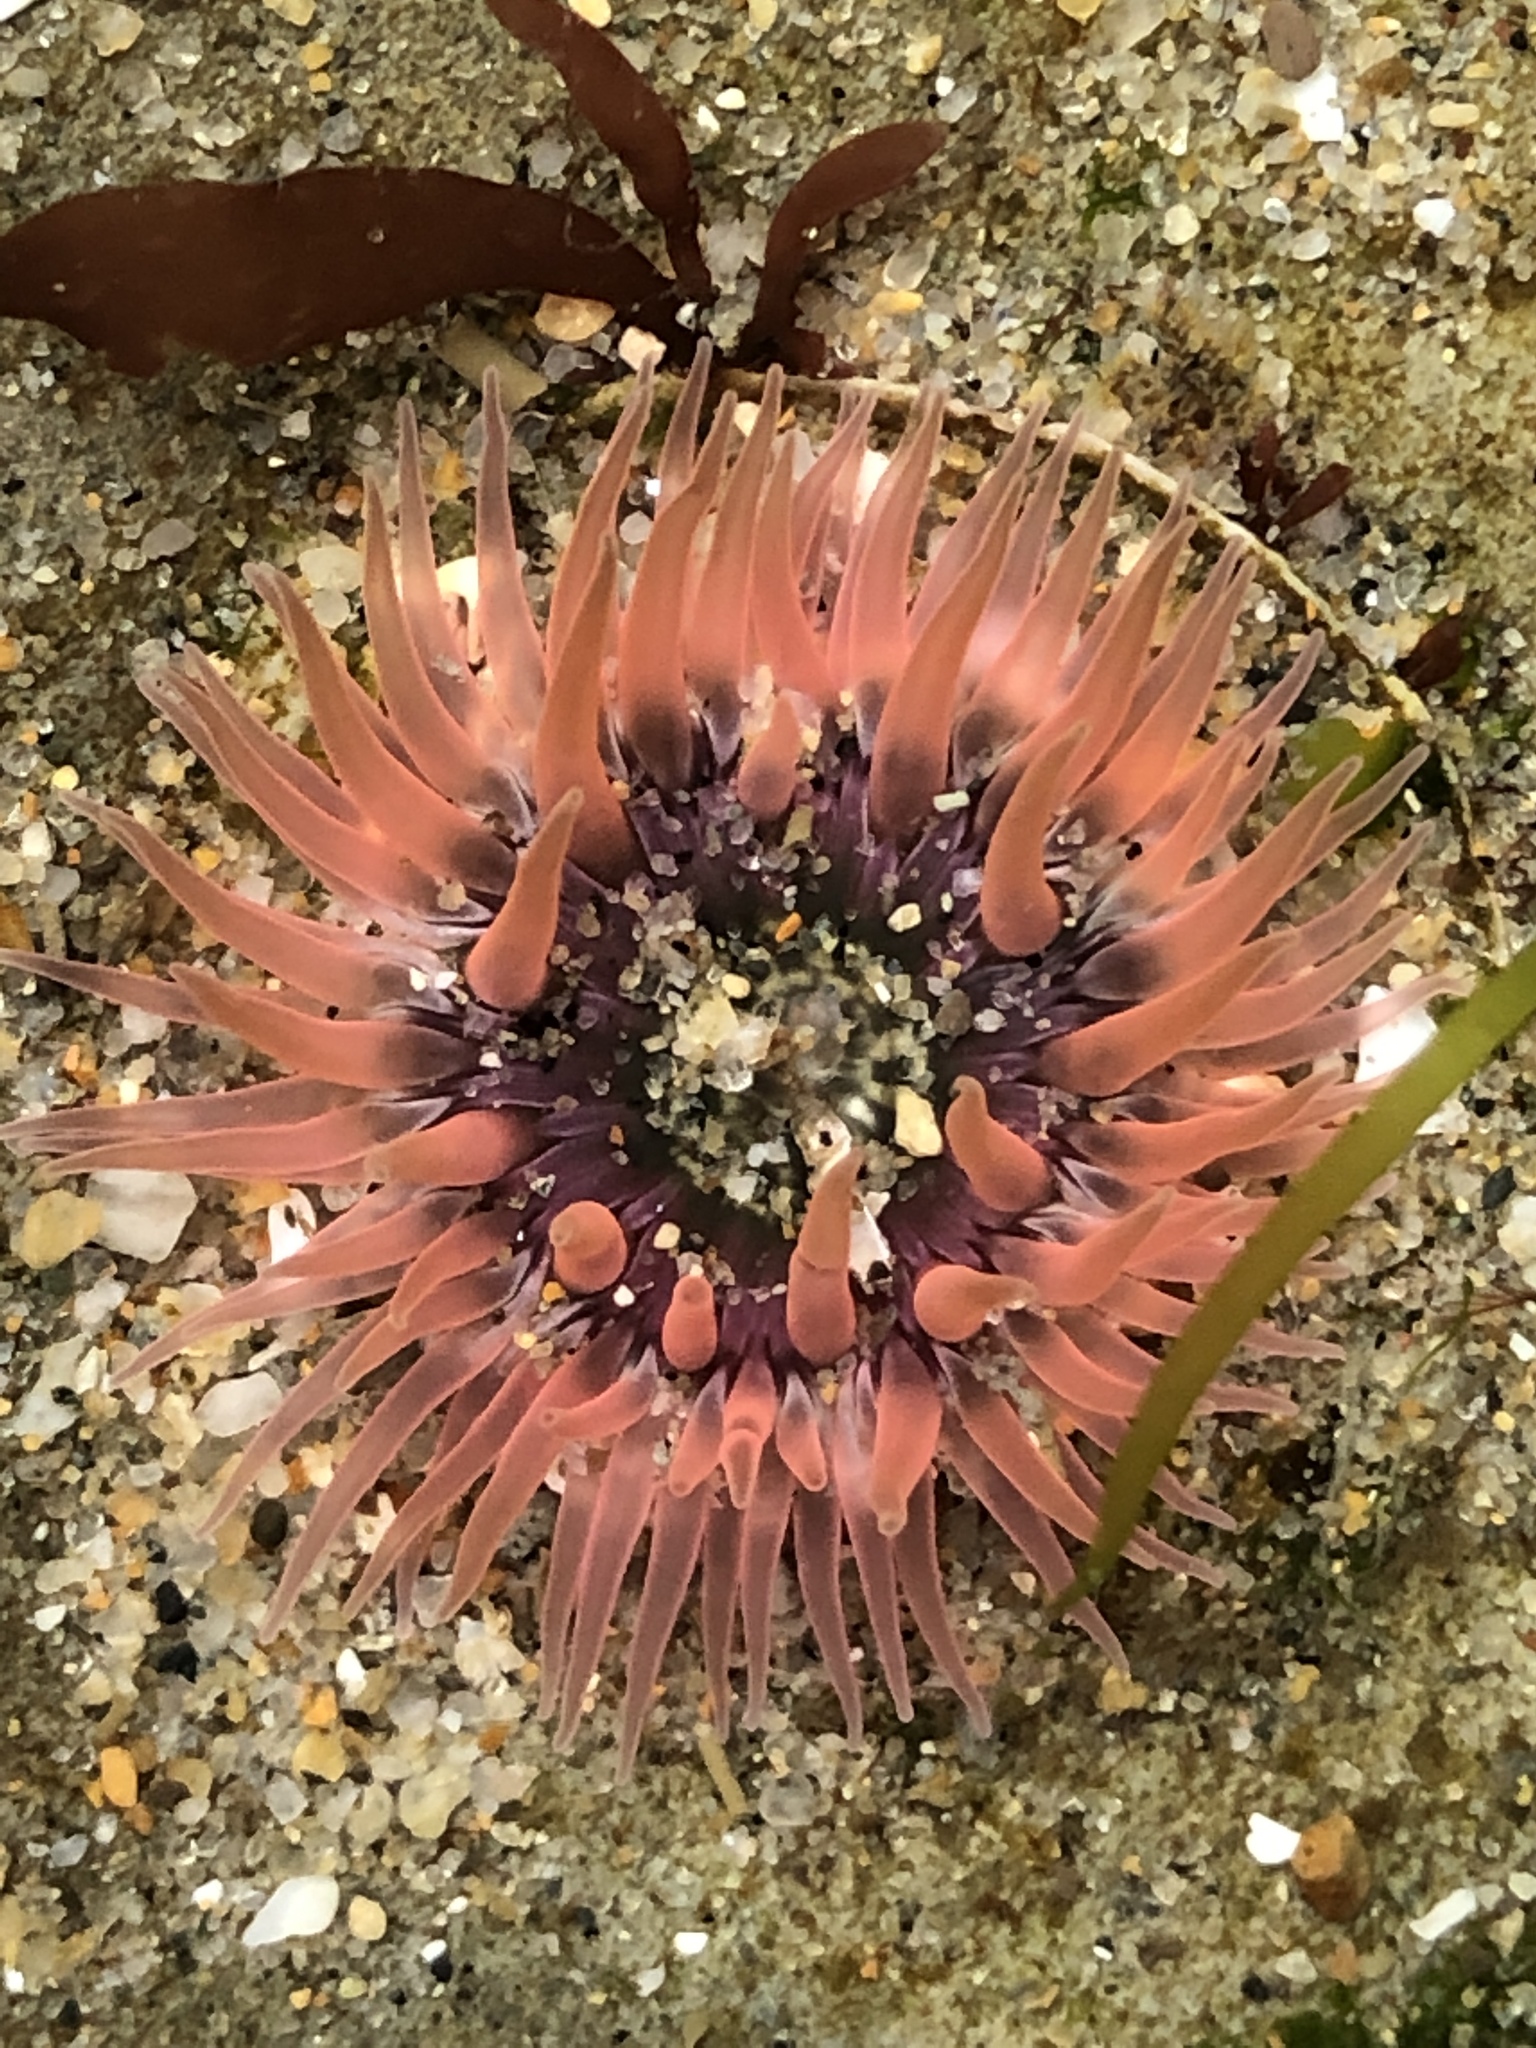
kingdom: Animalia
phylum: Cnidaria
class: Anthozoa
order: Actiniaria
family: Actiniidae
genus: Anthopleura
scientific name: Anthopleura artemisia
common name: Buried sea anemone
